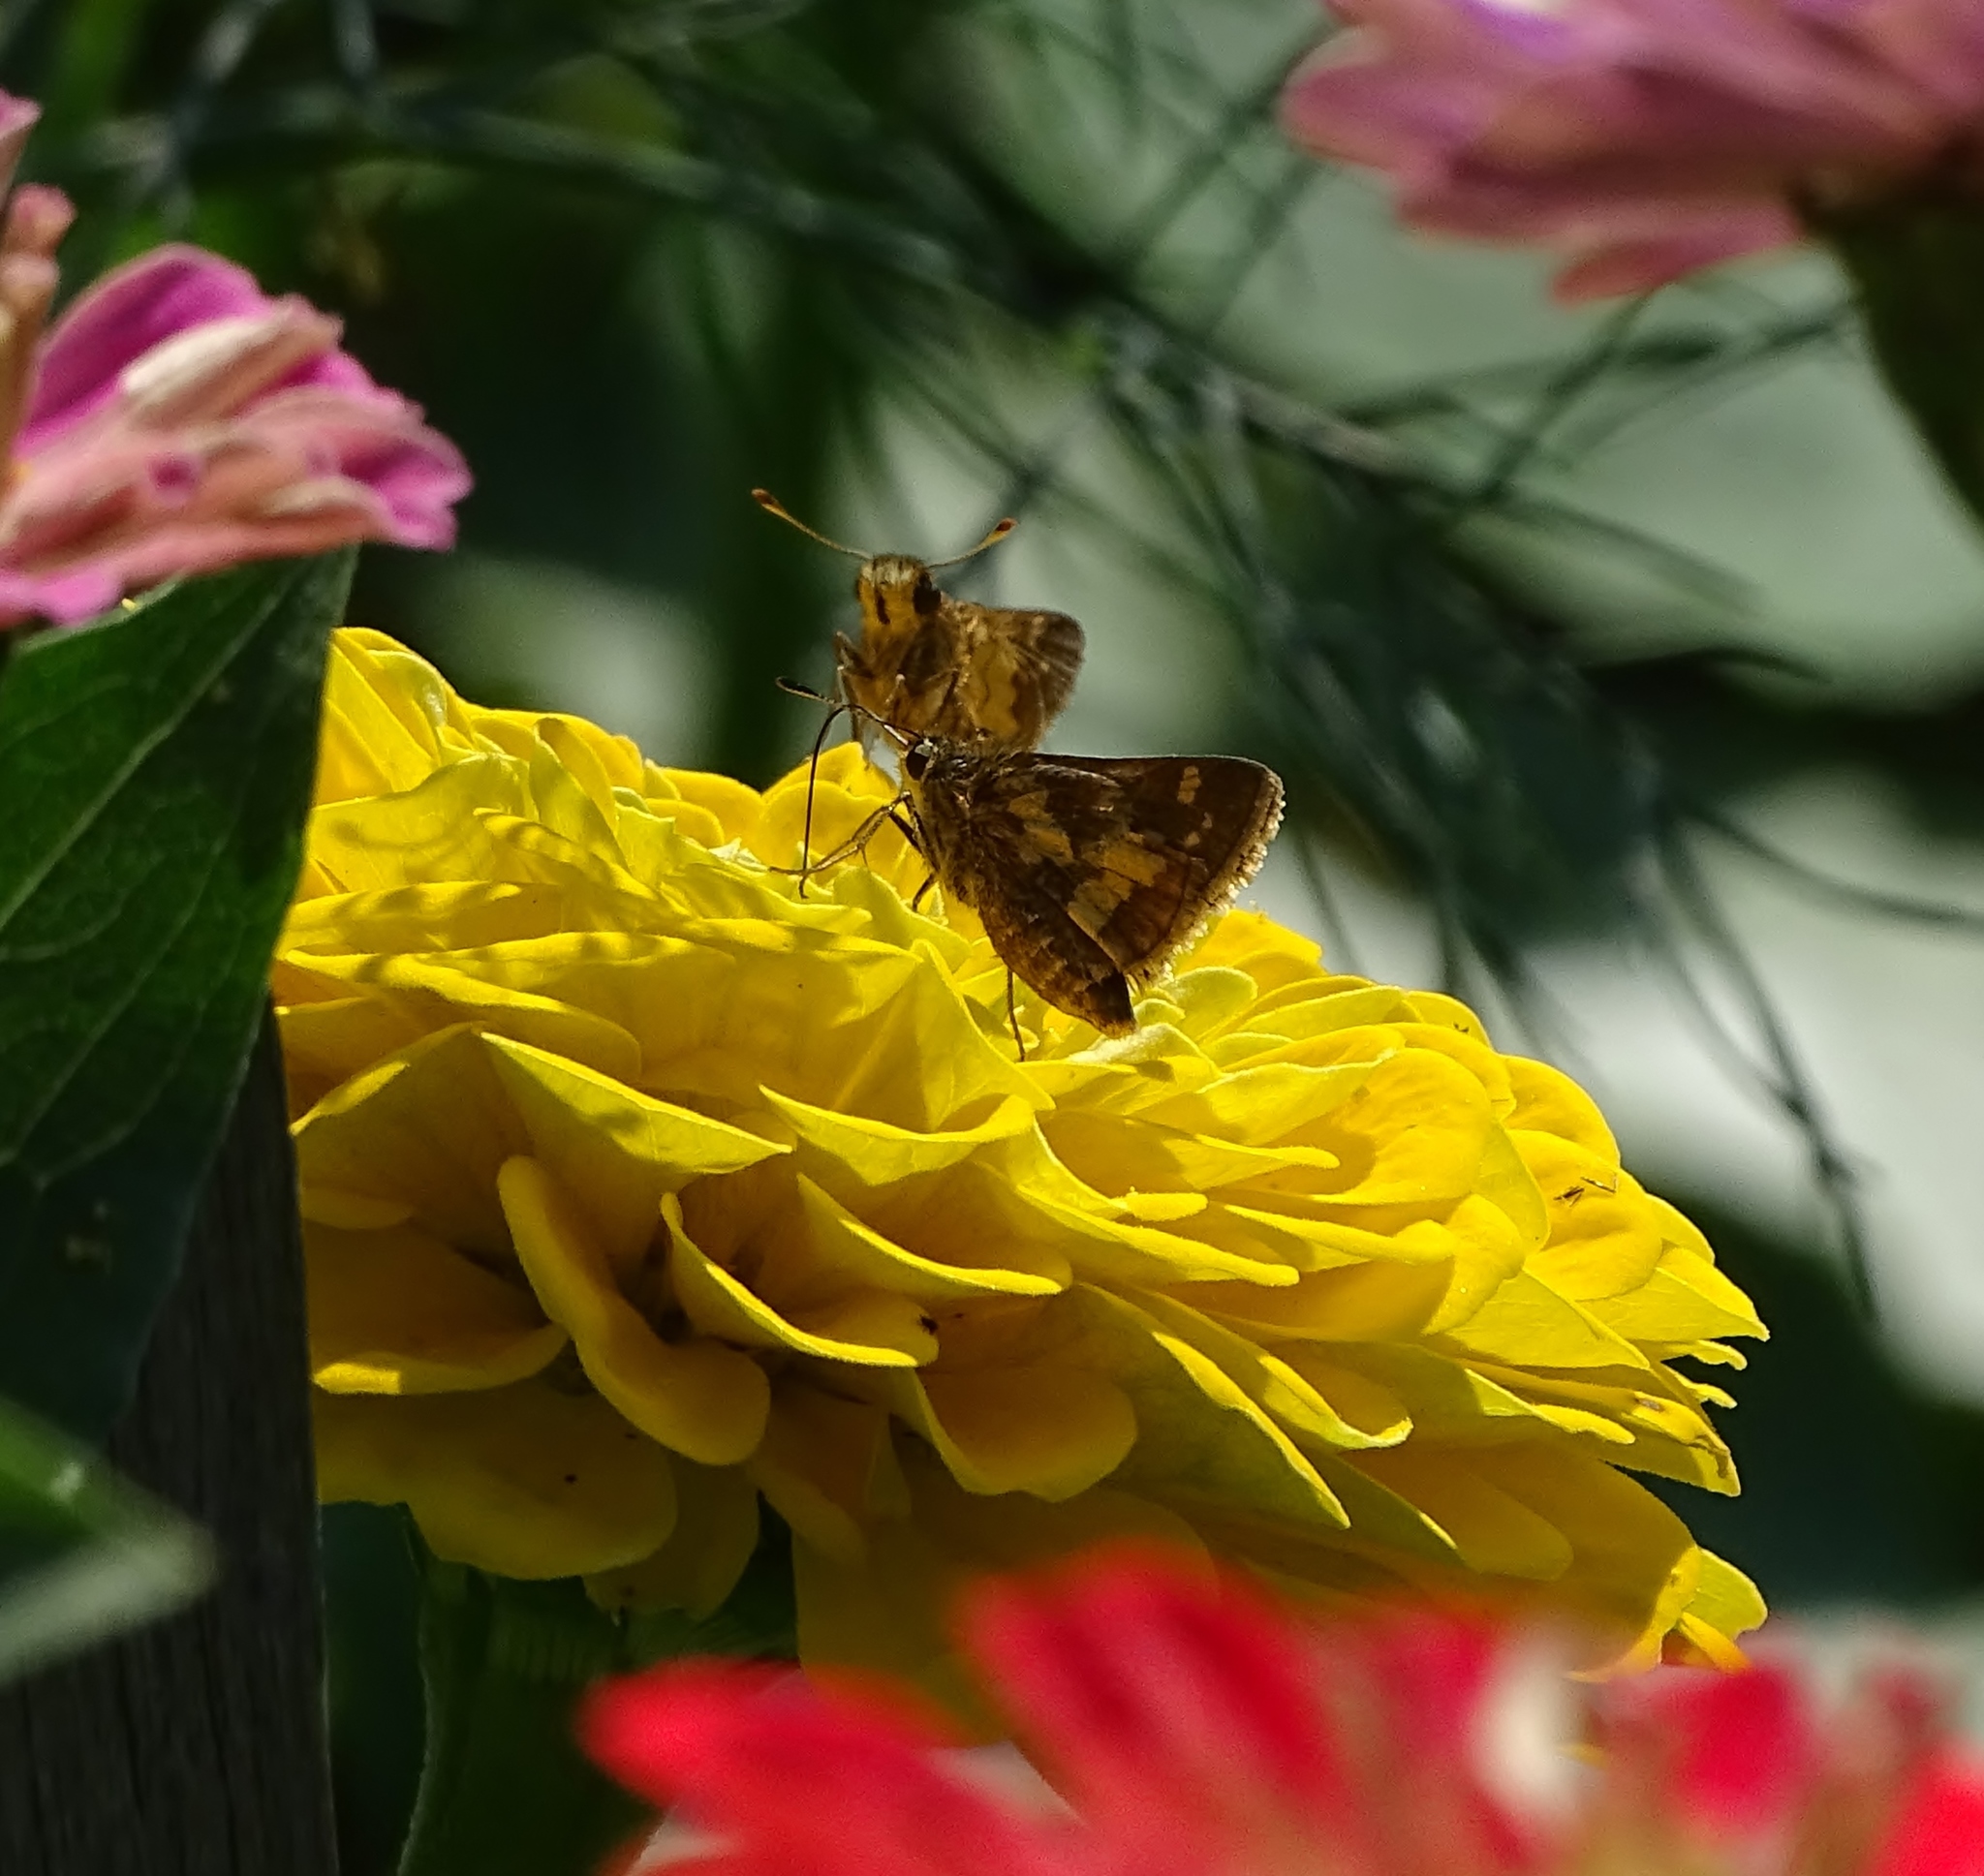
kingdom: Animalia
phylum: Arthropoda
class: Insecta
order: Lepidoptera
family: Hesperiidae
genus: Polites
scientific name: Polites coras
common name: Peck's skipper
